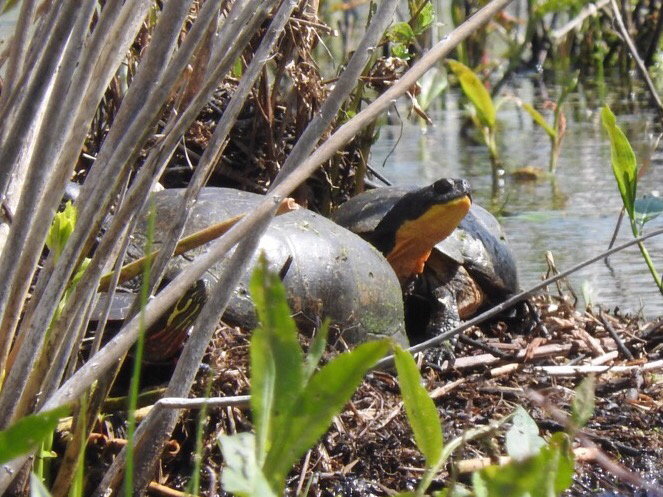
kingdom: Animalia
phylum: Chordata
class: Testudines
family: Emydidae
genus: Emys
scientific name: Emys blandingii
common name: Blanding's turtle
